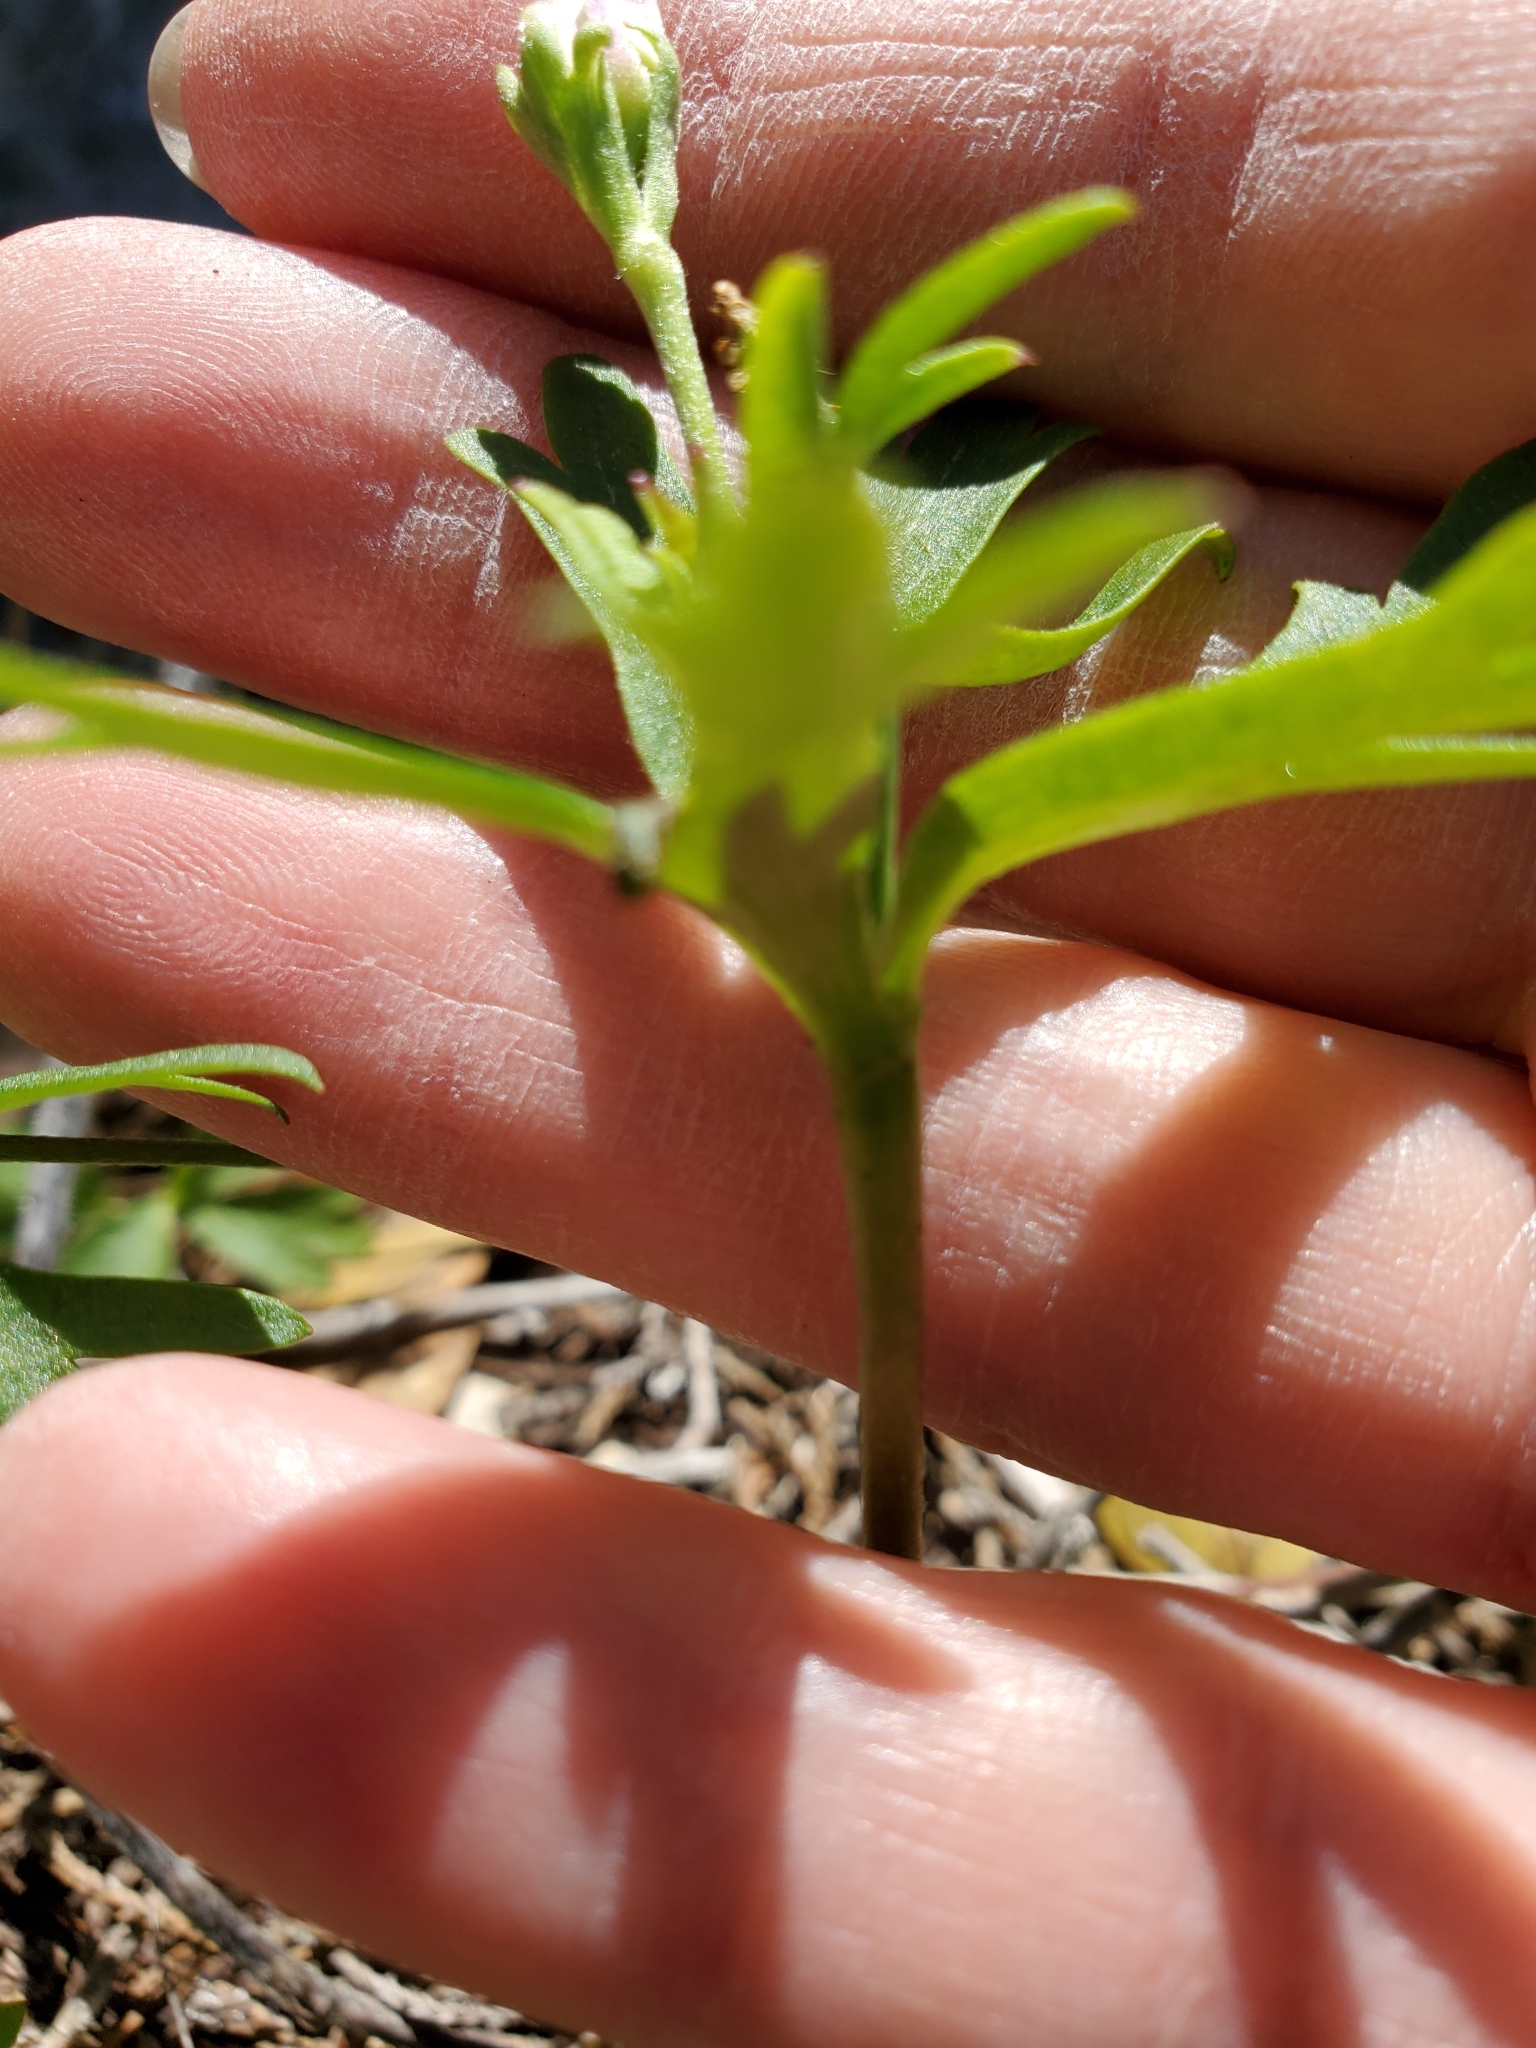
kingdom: Plantae
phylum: Tracheophyta
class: Magnoliopsida
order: Ranunculales
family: Ranunculaceae
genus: Anemone
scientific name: Anemone edwardsiana
